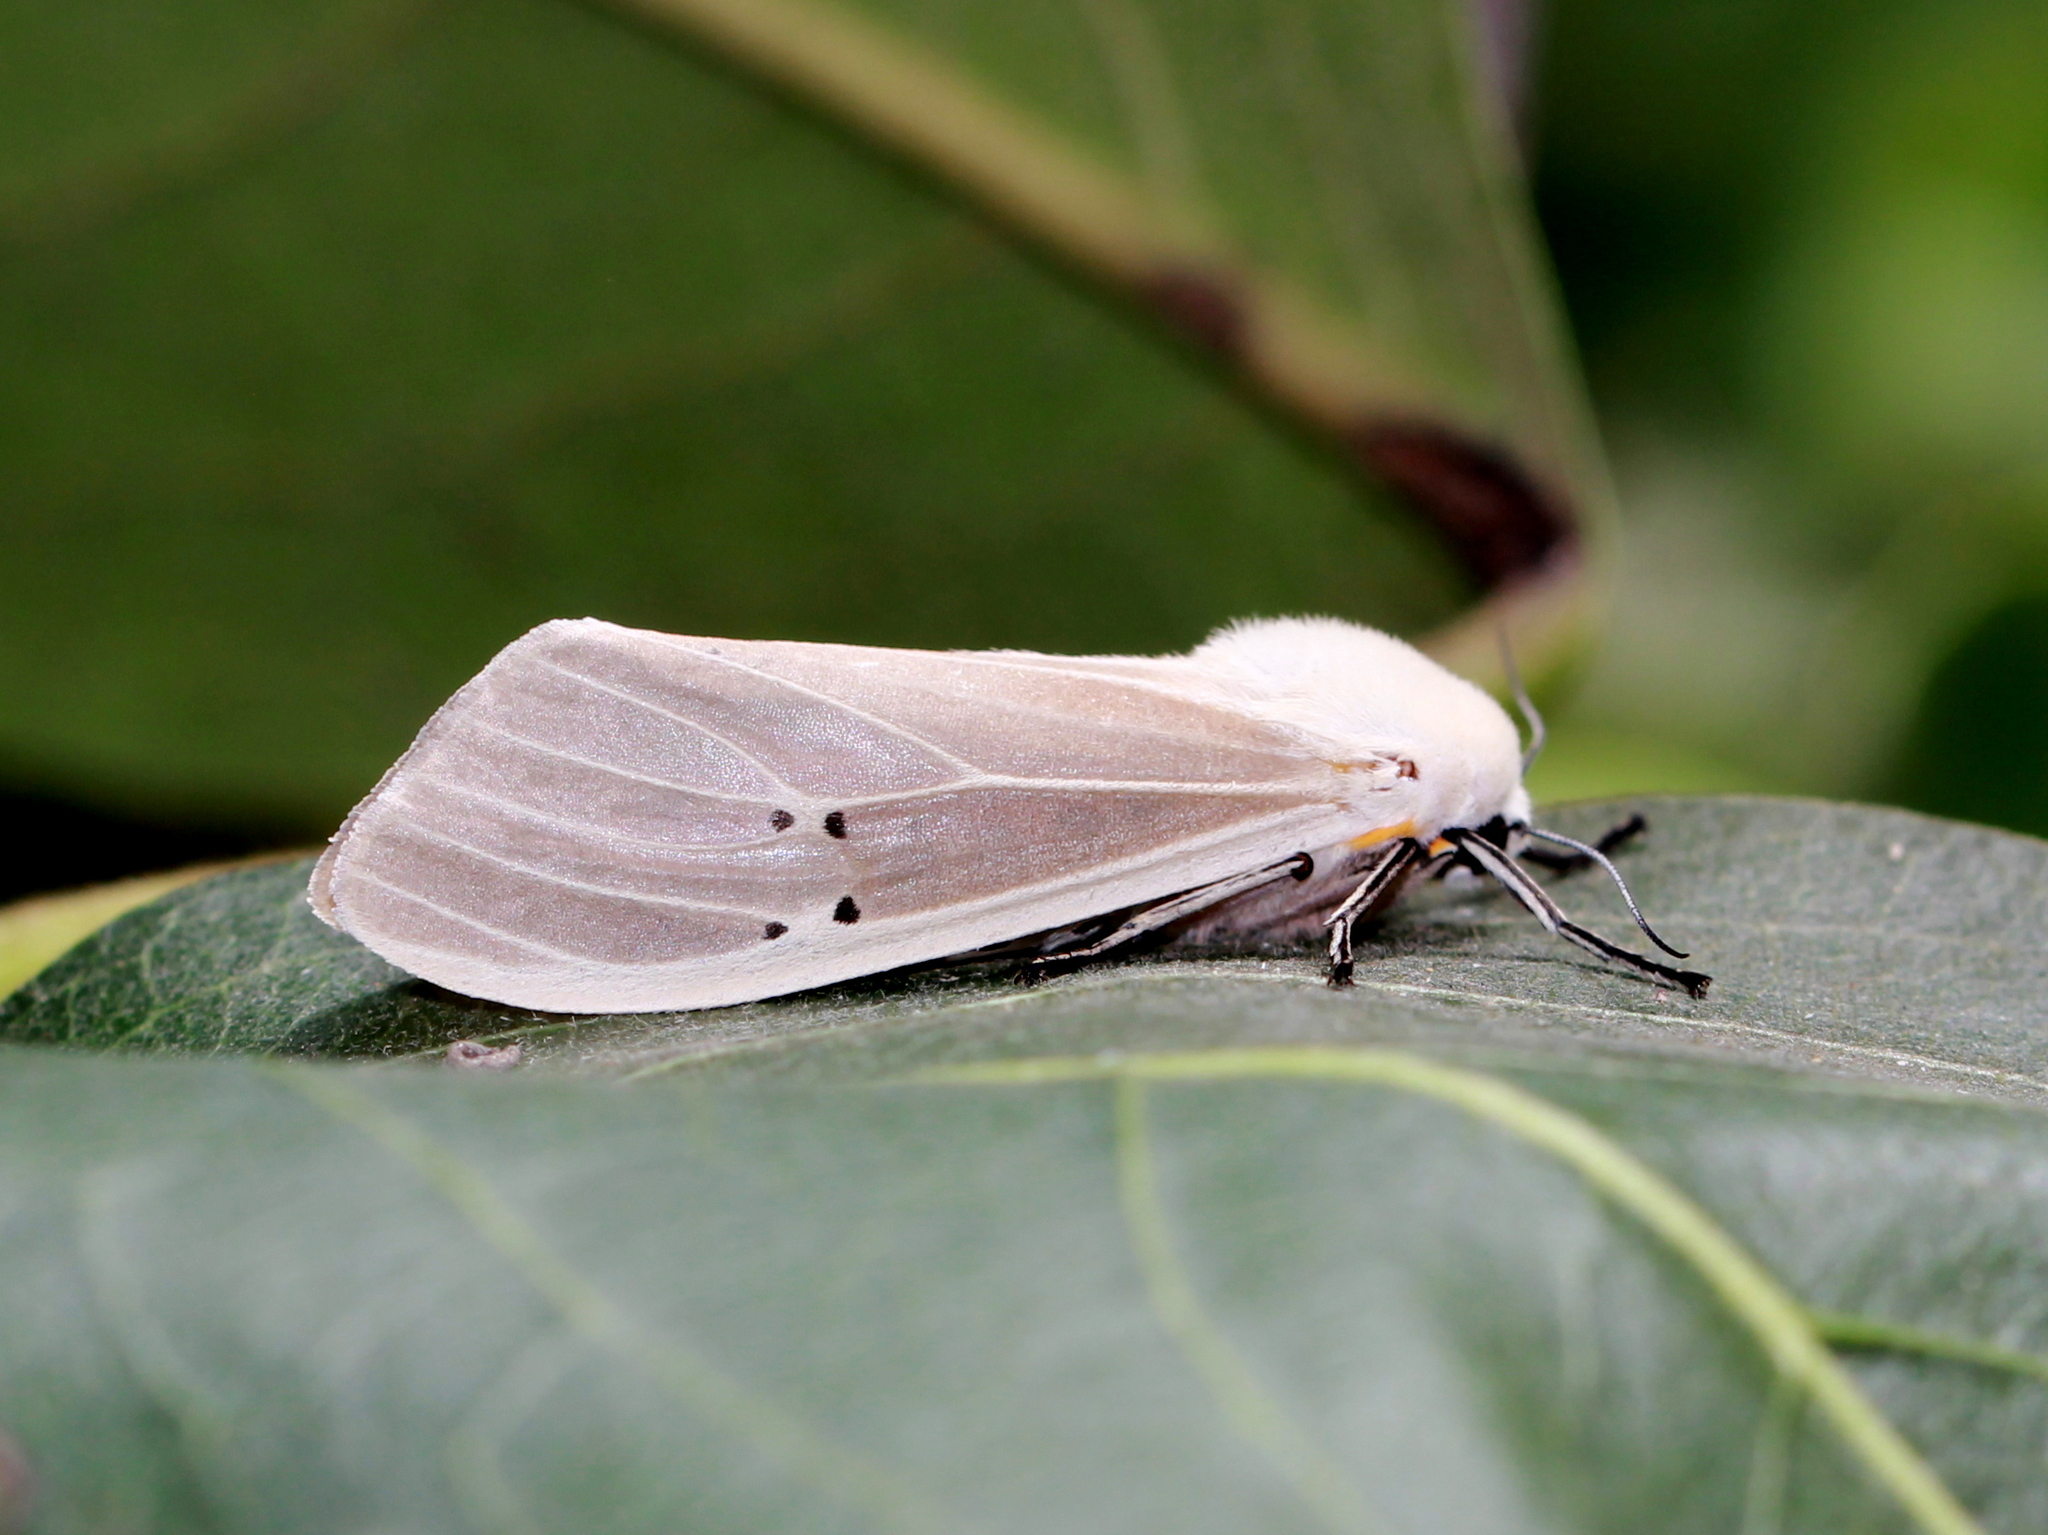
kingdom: Animalia
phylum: Arthropoda
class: Insecta
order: Lepidoptera
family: Erebidae
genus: Creatonotos
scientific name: Creatonotos transiens
